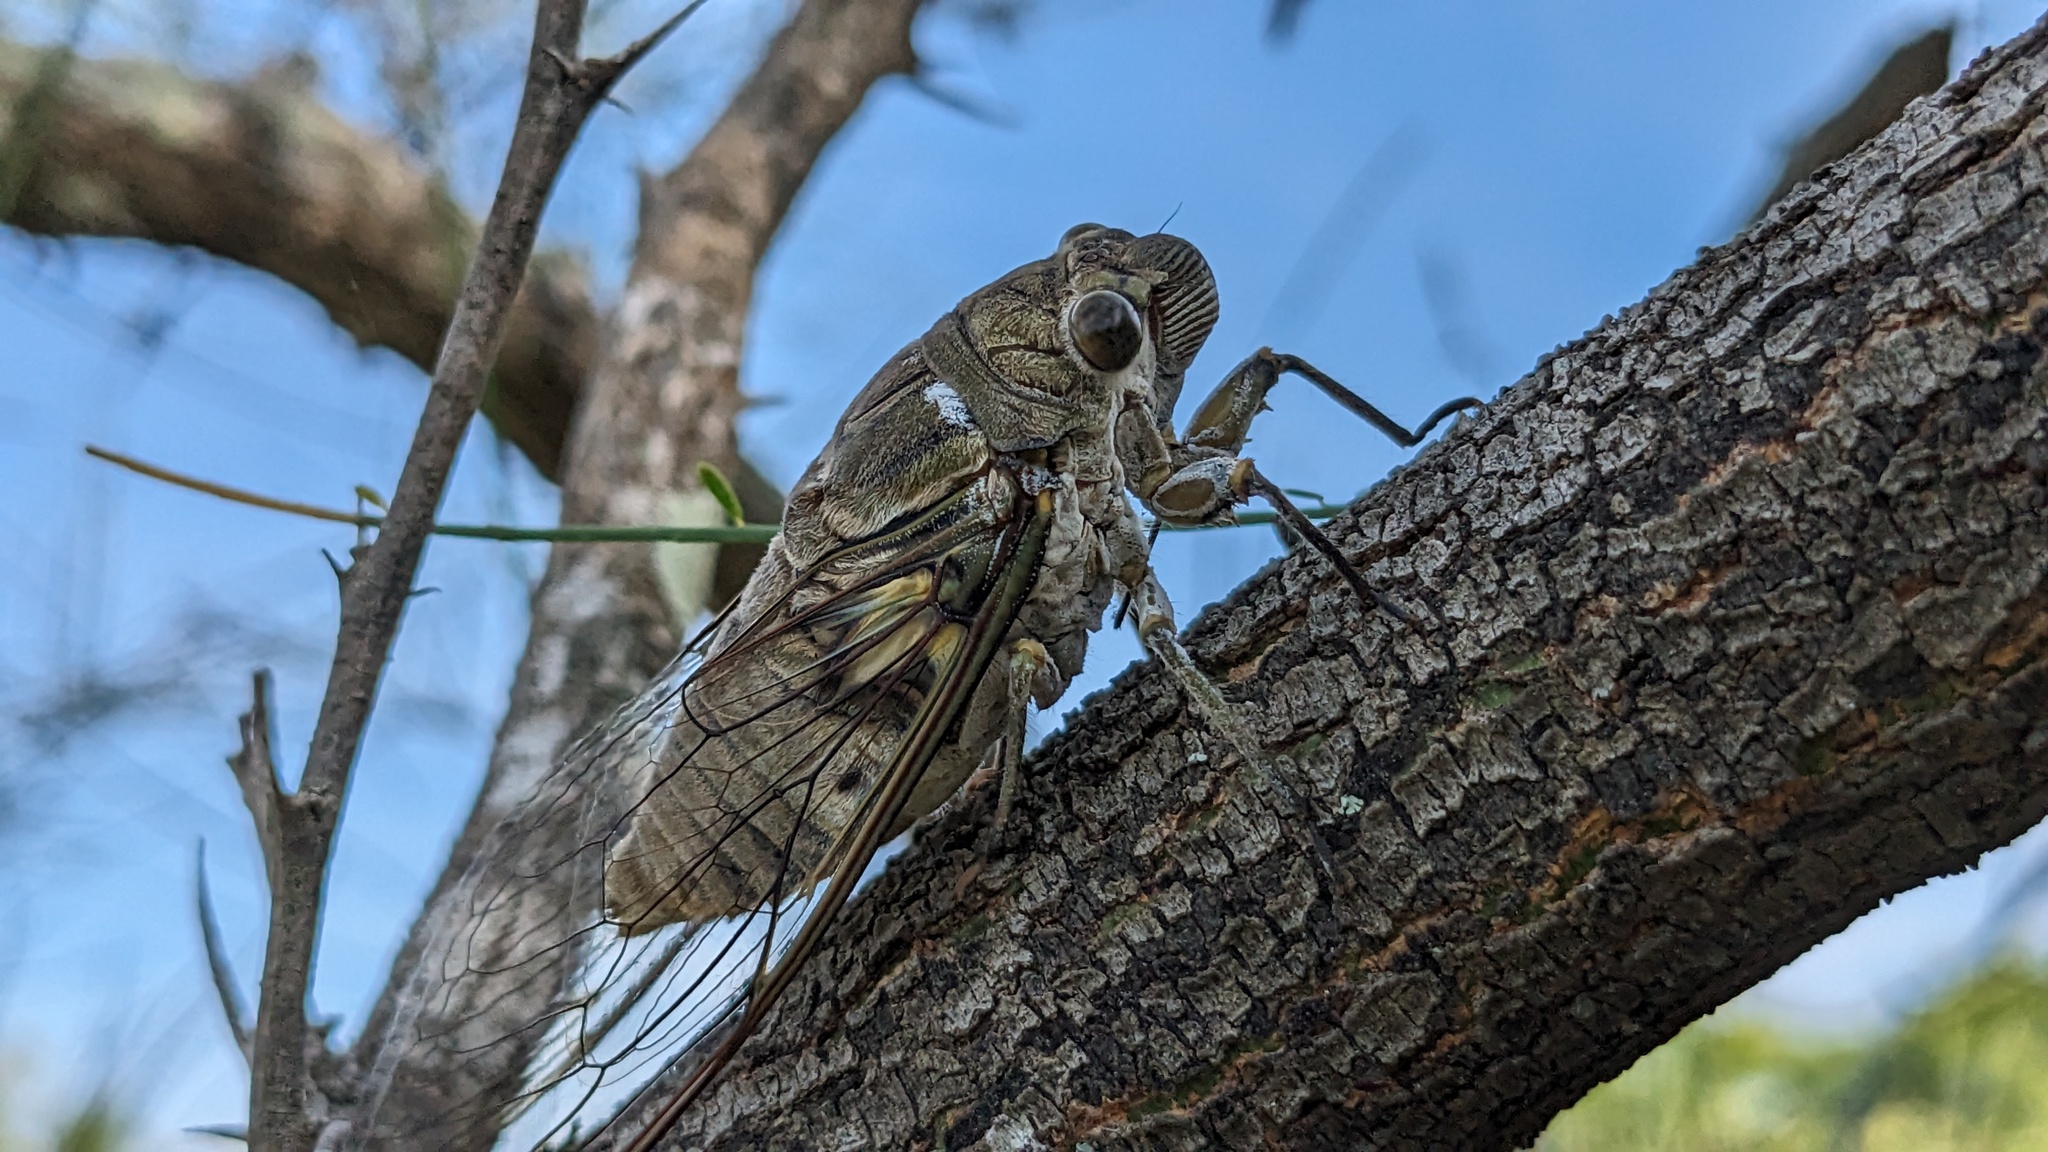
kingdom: Animalia
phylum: Arthropoda
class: Insecta
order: Hemiptera
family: Cicadidae
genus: Quesada
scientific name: Quesada gigas
